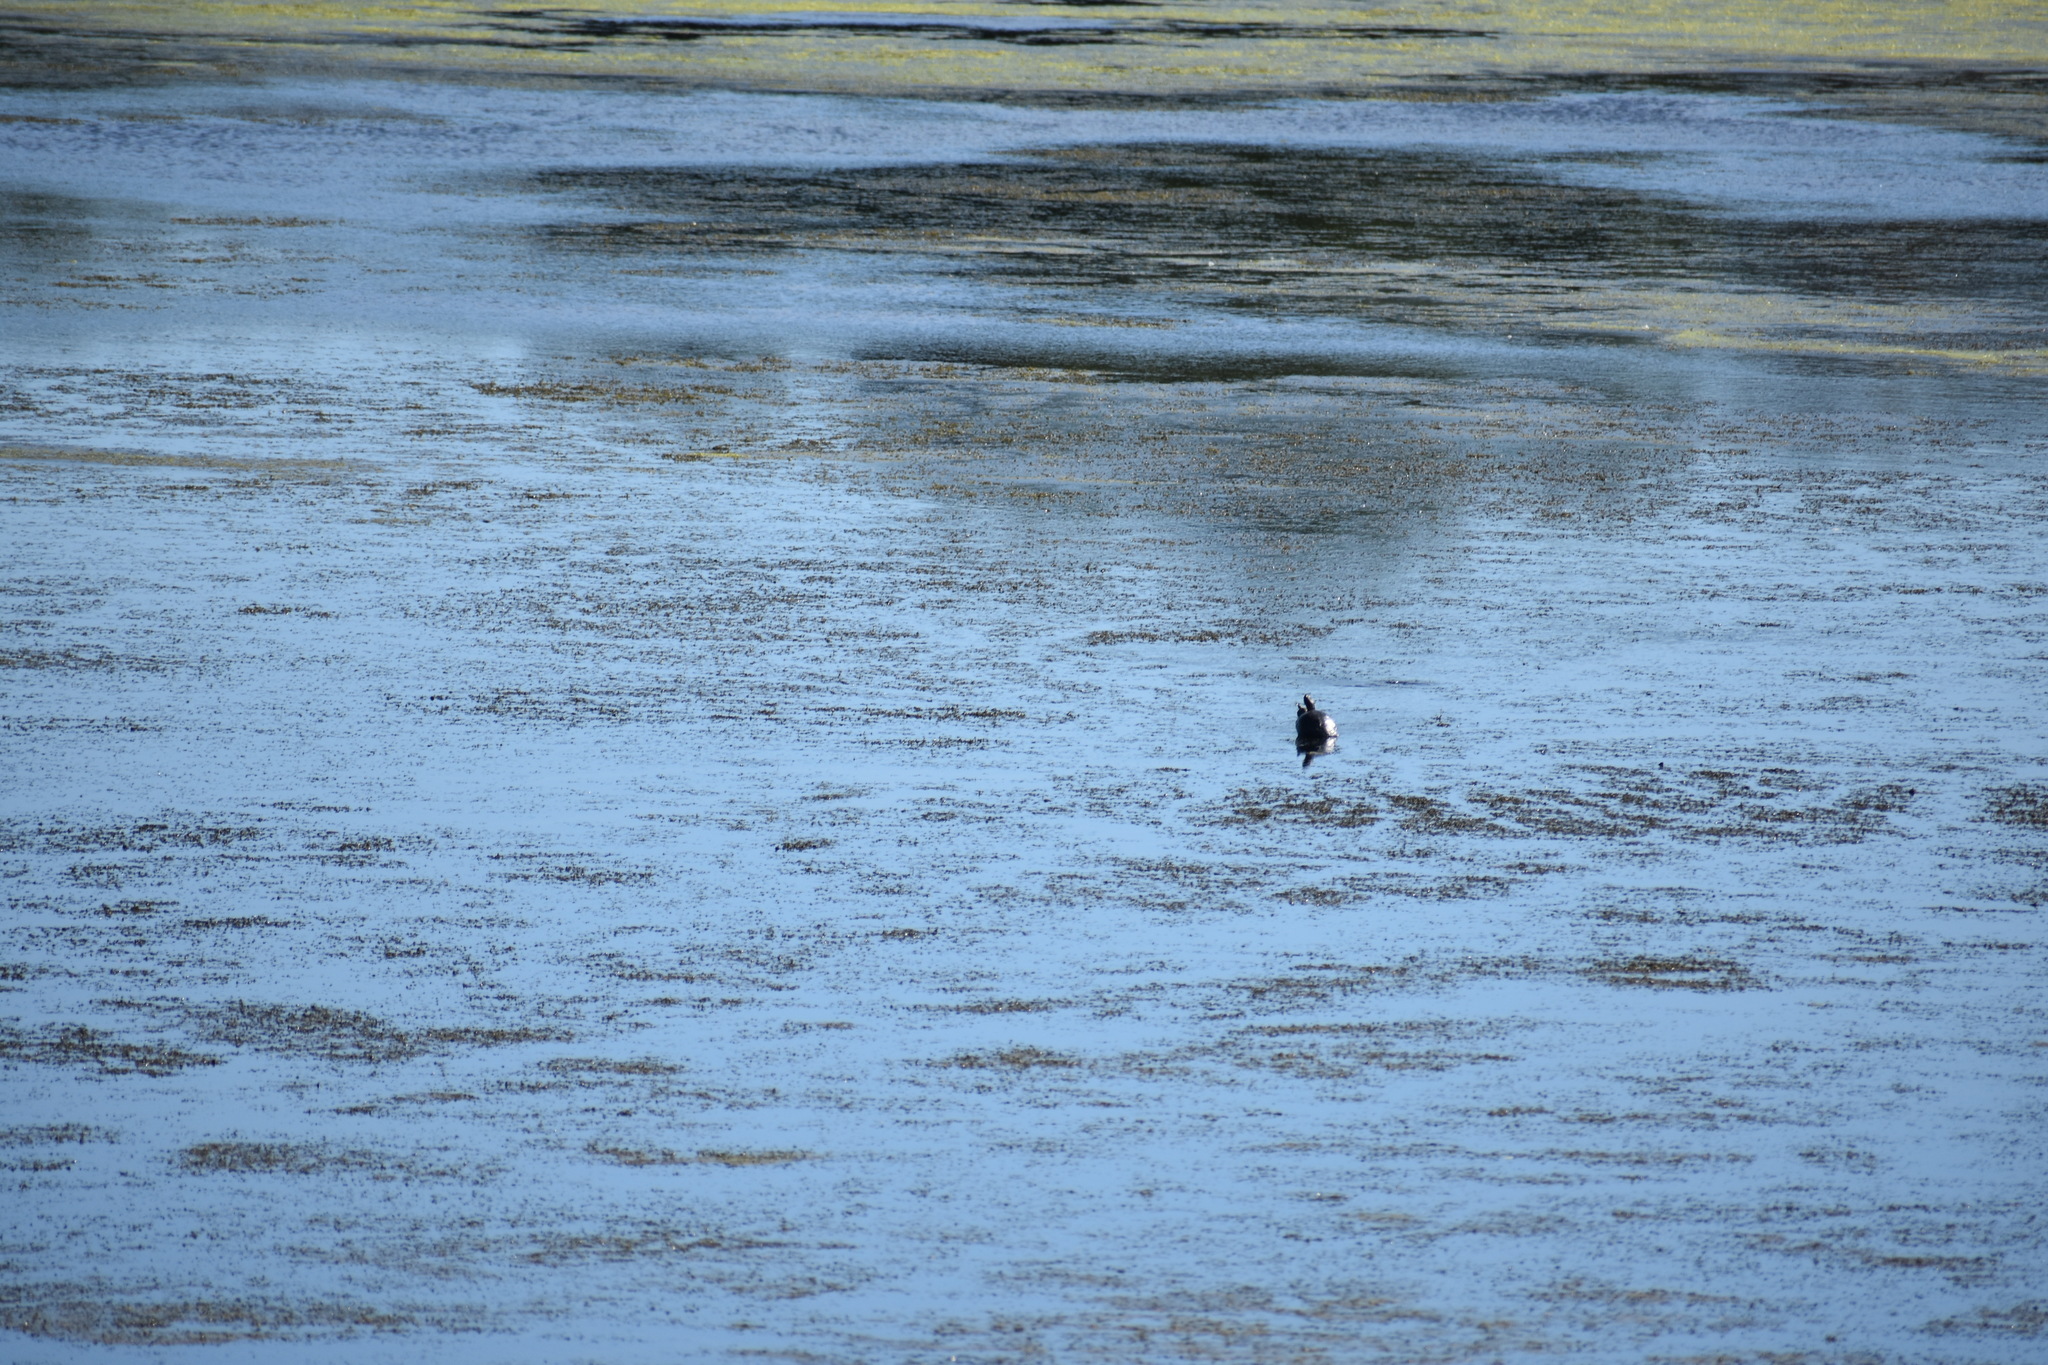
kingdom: Animalia
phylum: Chordata
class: Testudines
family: Emydidae
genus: Trachemys
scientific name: Trachemys scripta
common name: Slider
